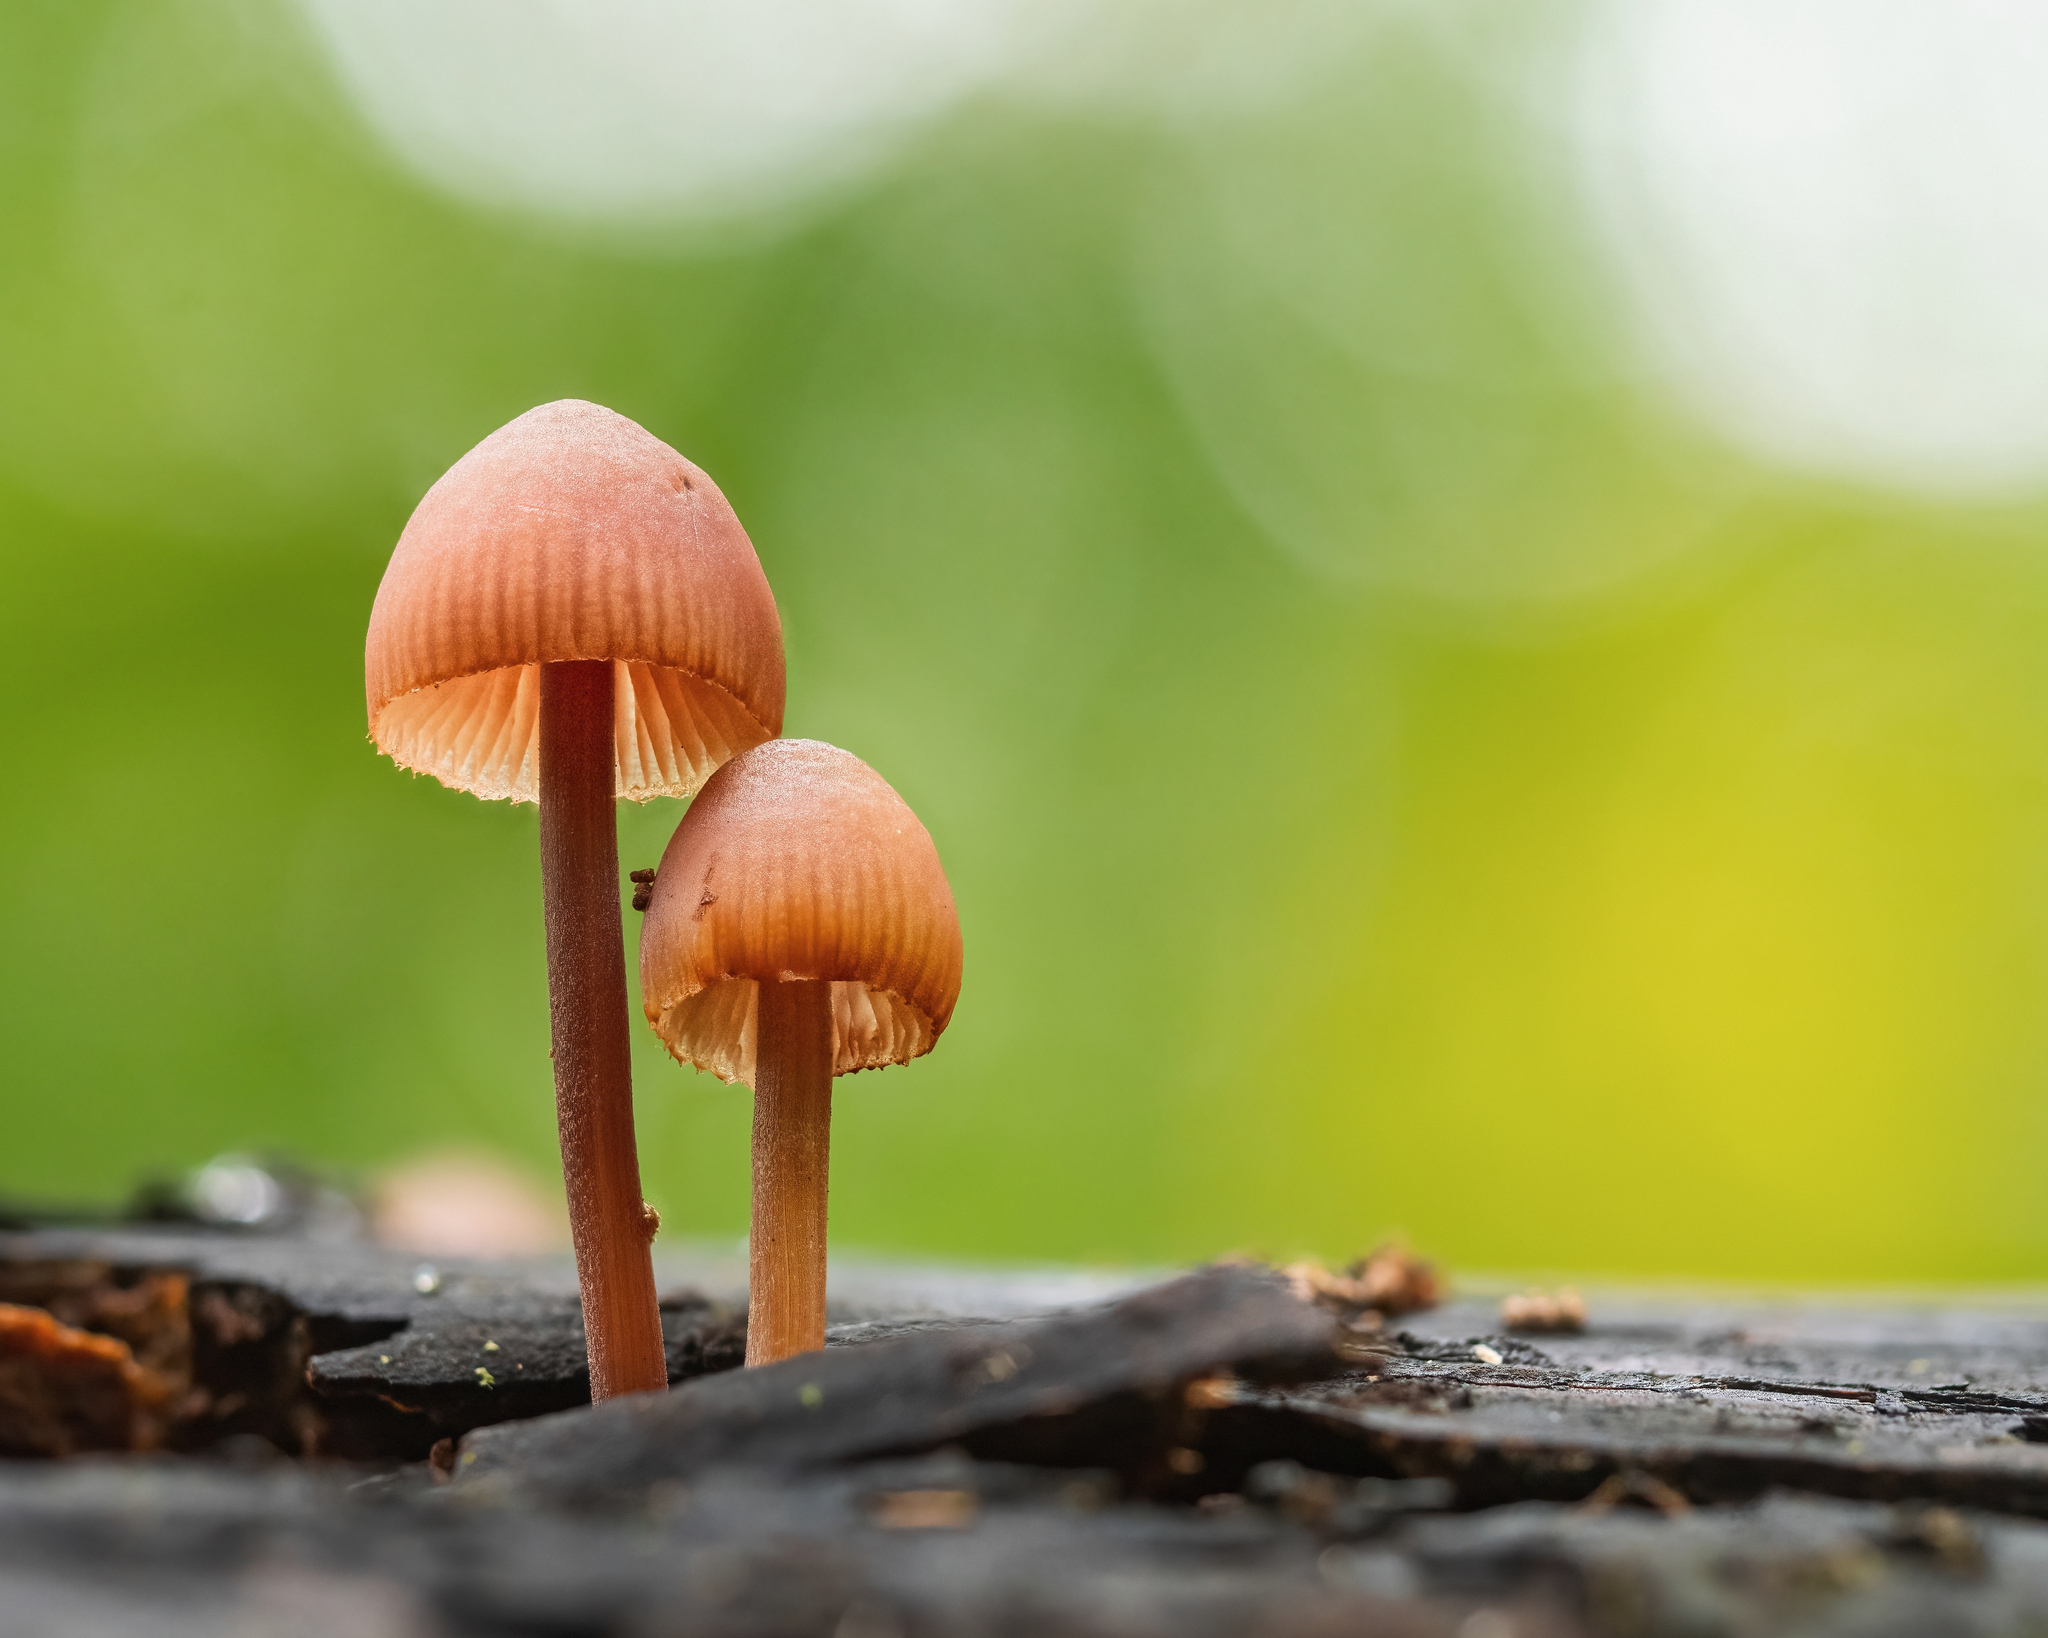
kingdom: Fungi
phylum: Basidiomycota
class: Agaricomycetes
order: Agaricales
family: Mycenaceae
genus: Mycena
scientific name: Mycena haematopus
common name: Burgundydrop bonnet
